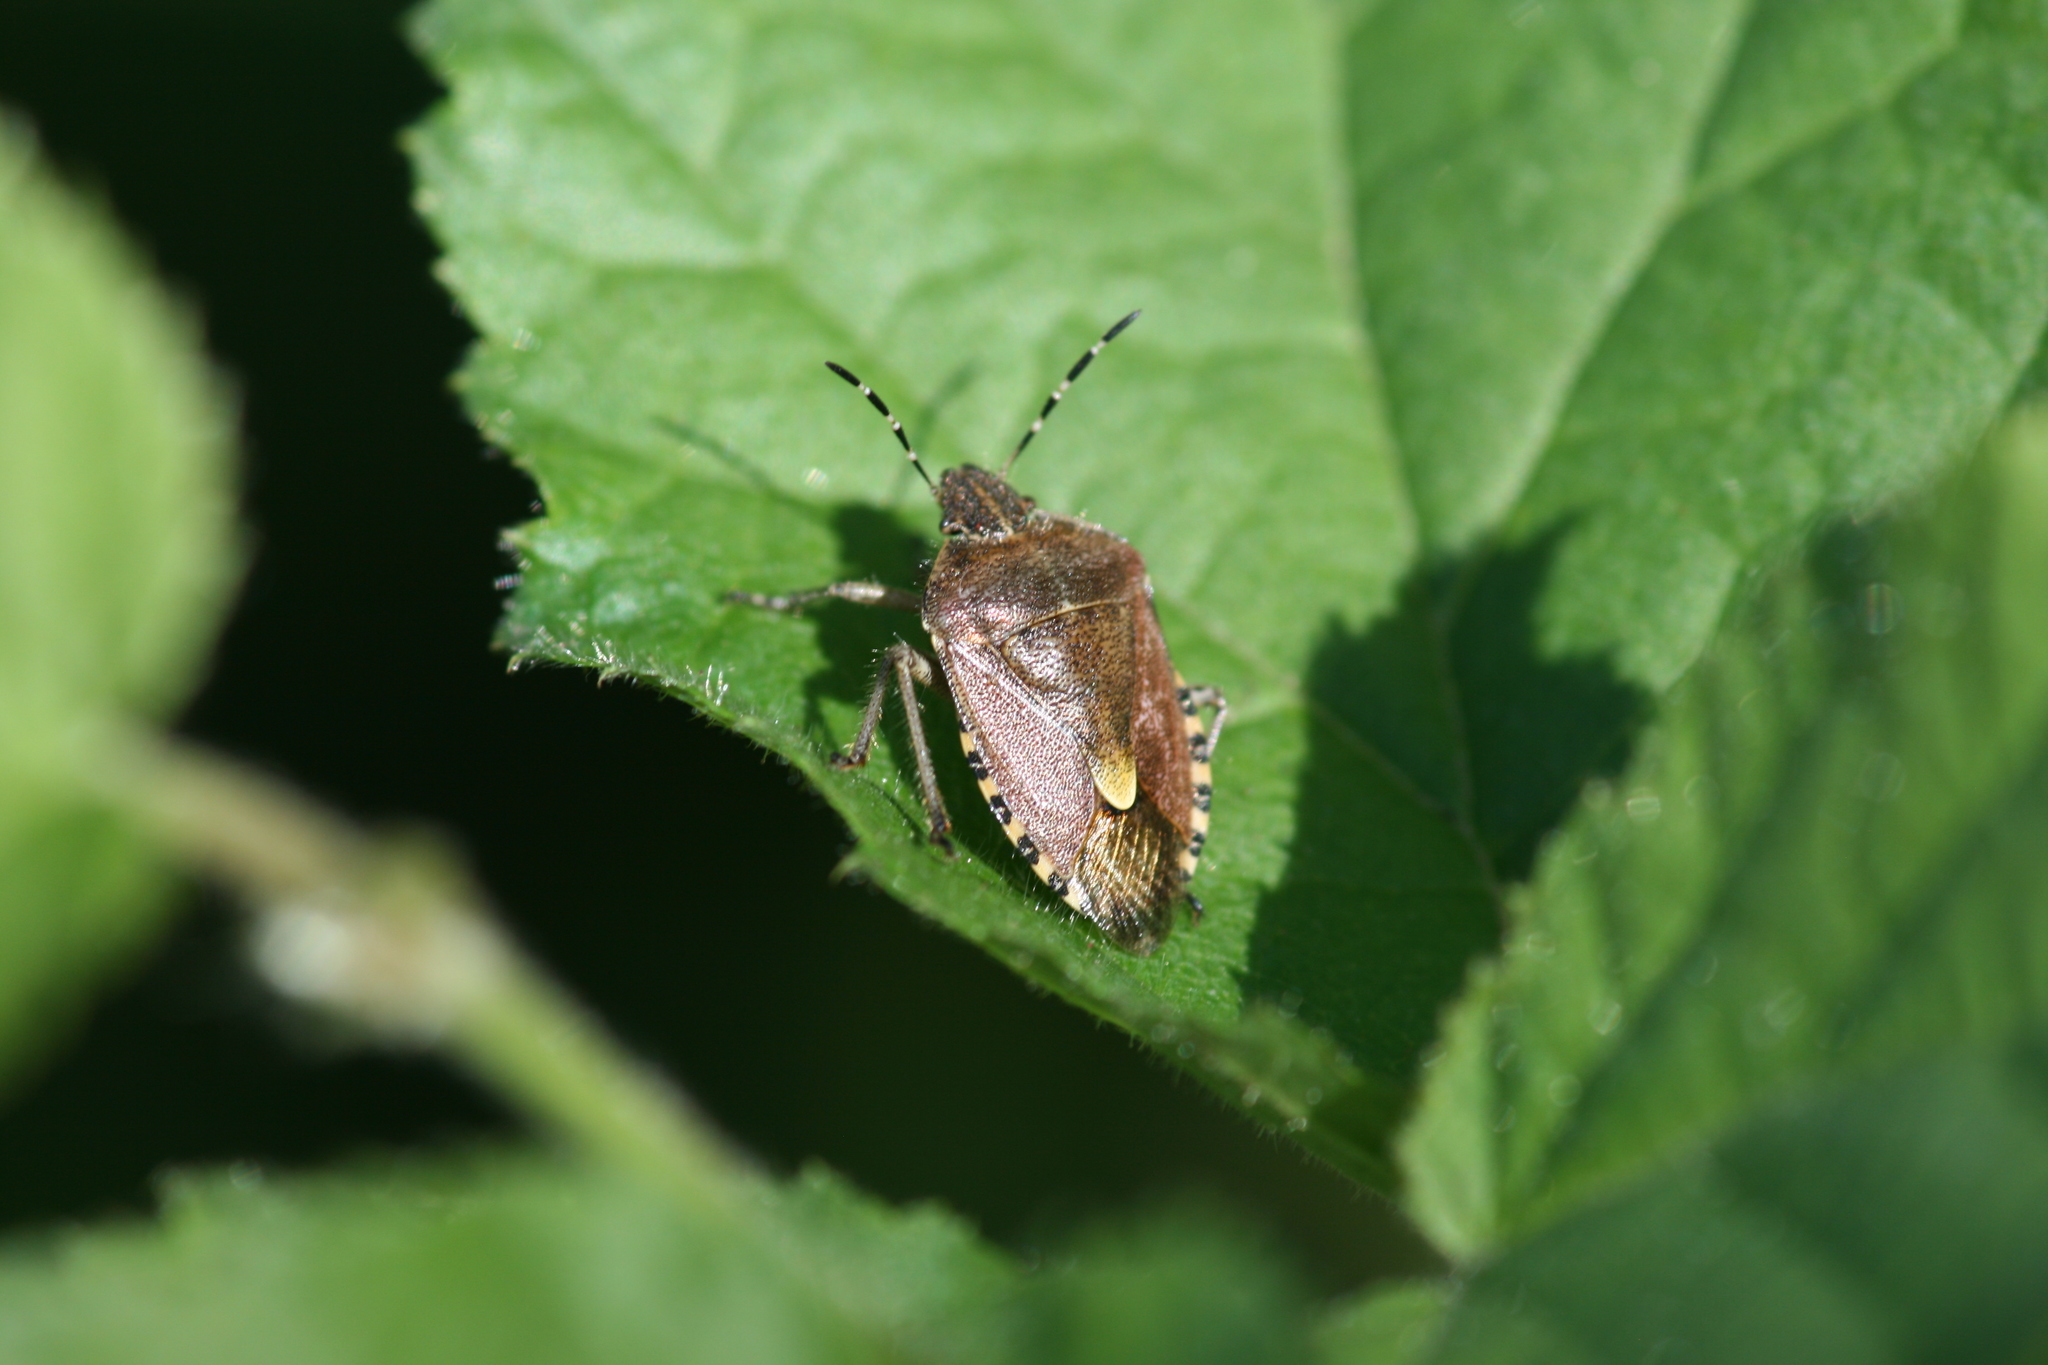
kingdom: Animalia
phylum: Arthropoda
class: Insecta
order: Hemiptera
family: Pentatomidae
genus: Dolycoris
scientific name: Dolycoris baccarum
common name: Sloe bug
